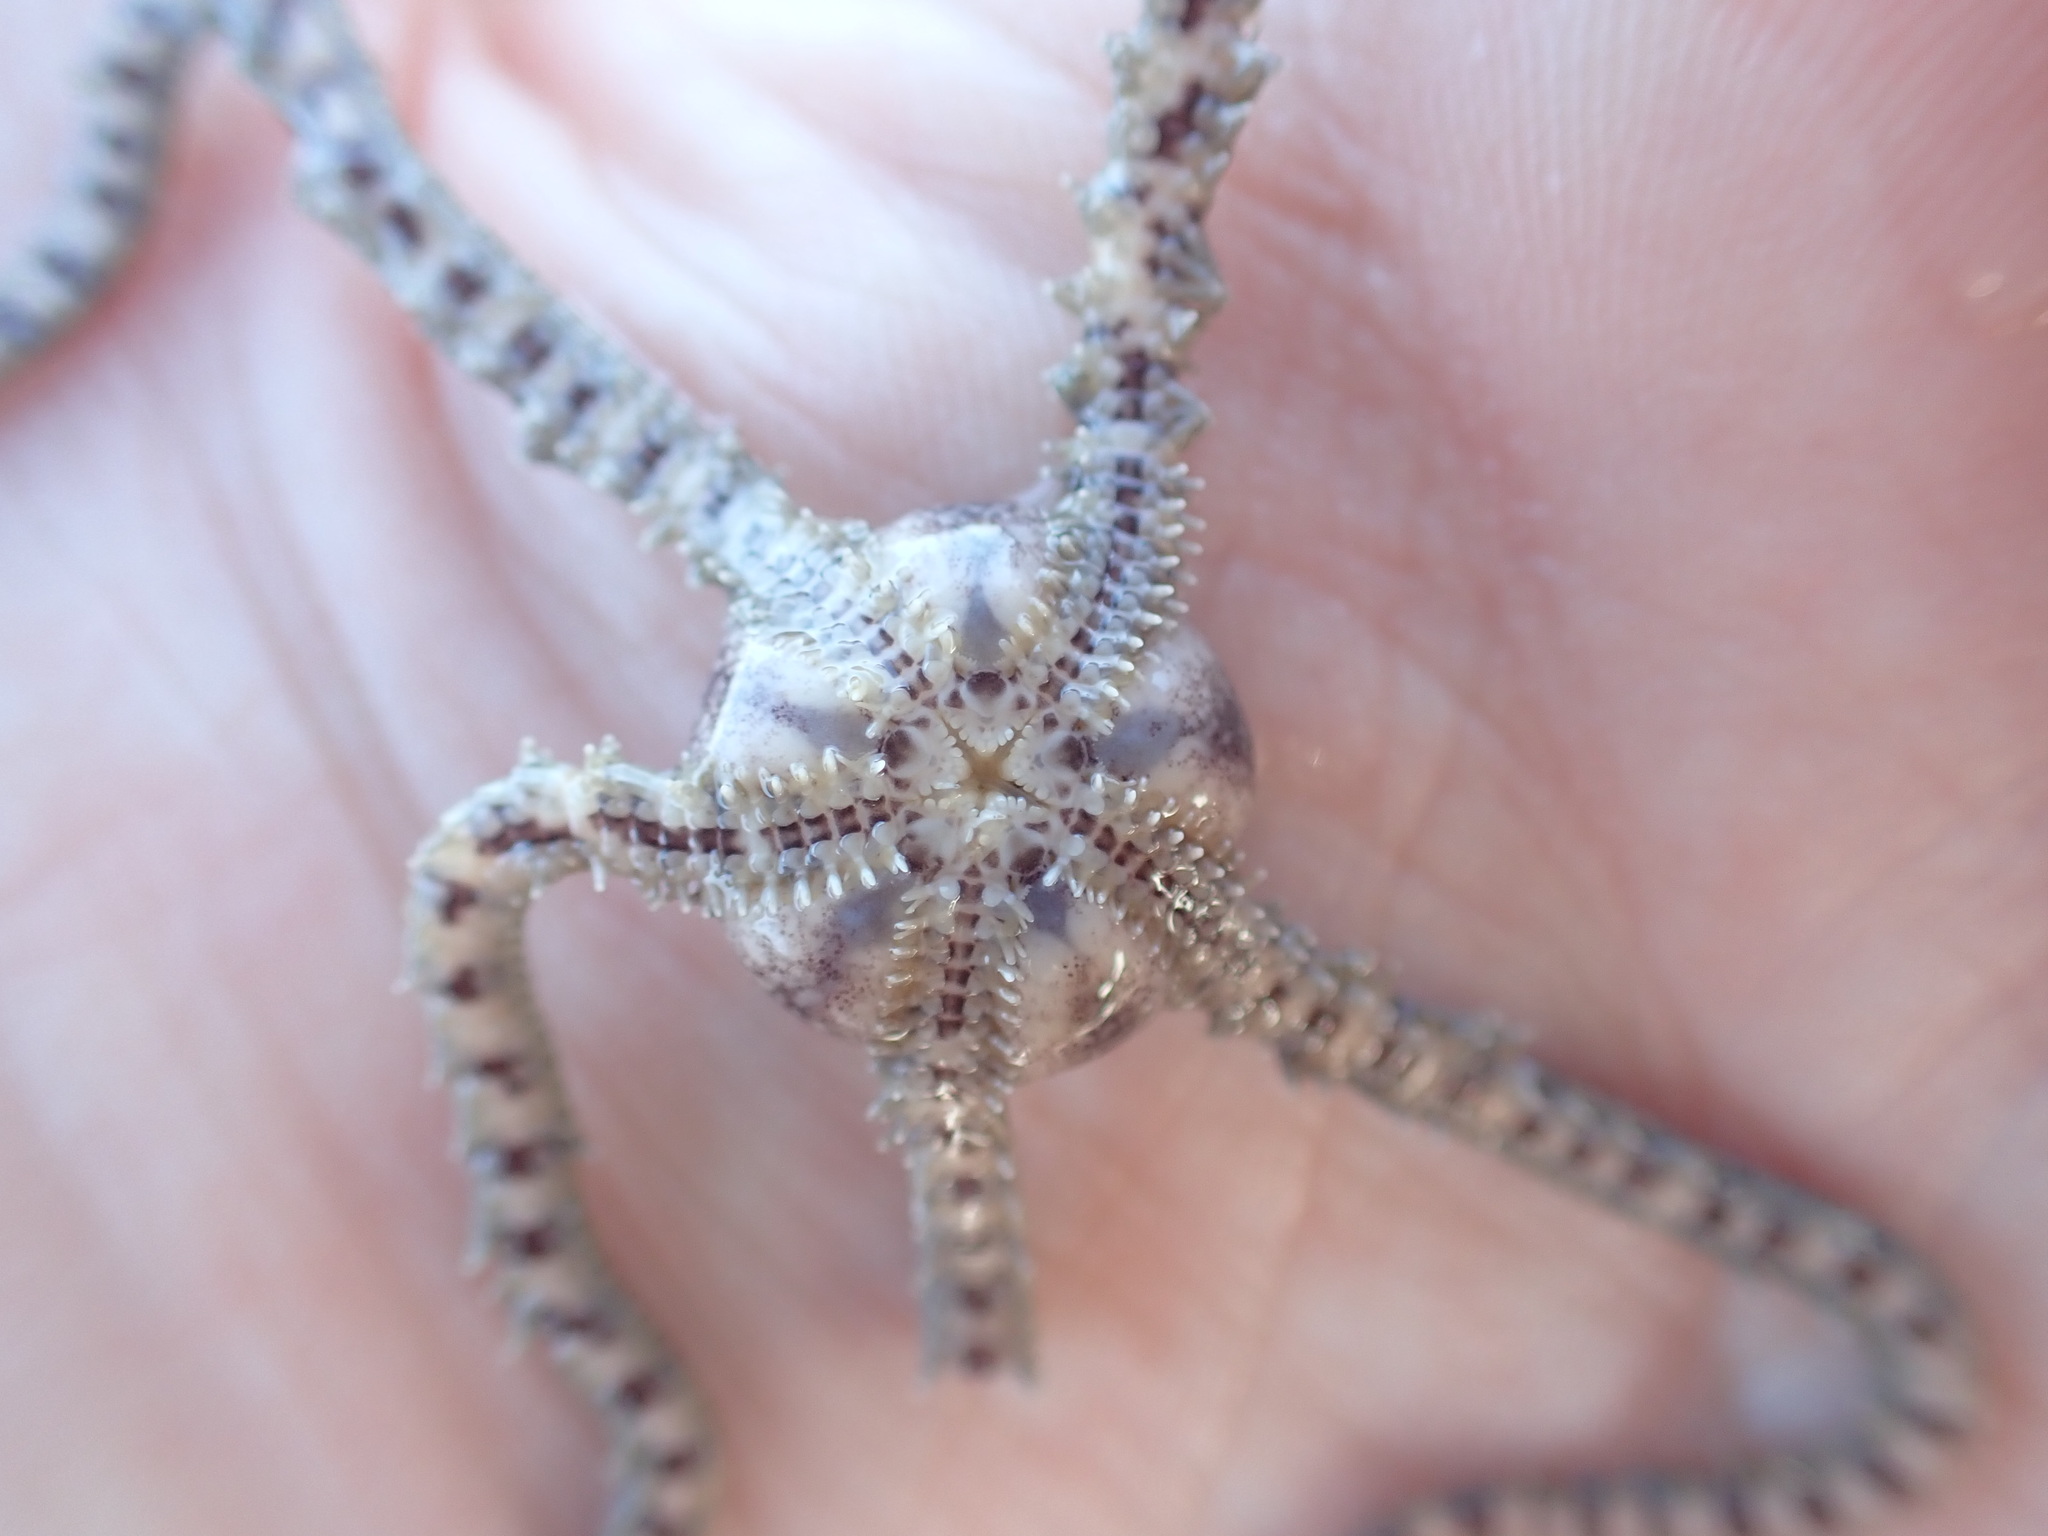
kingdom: Animalia
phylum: Echinodermata
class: Ophiuroidea
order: Amphilepidida
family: Ophionereididae
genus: Ophionereis
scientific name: Ophionereis fasciata
